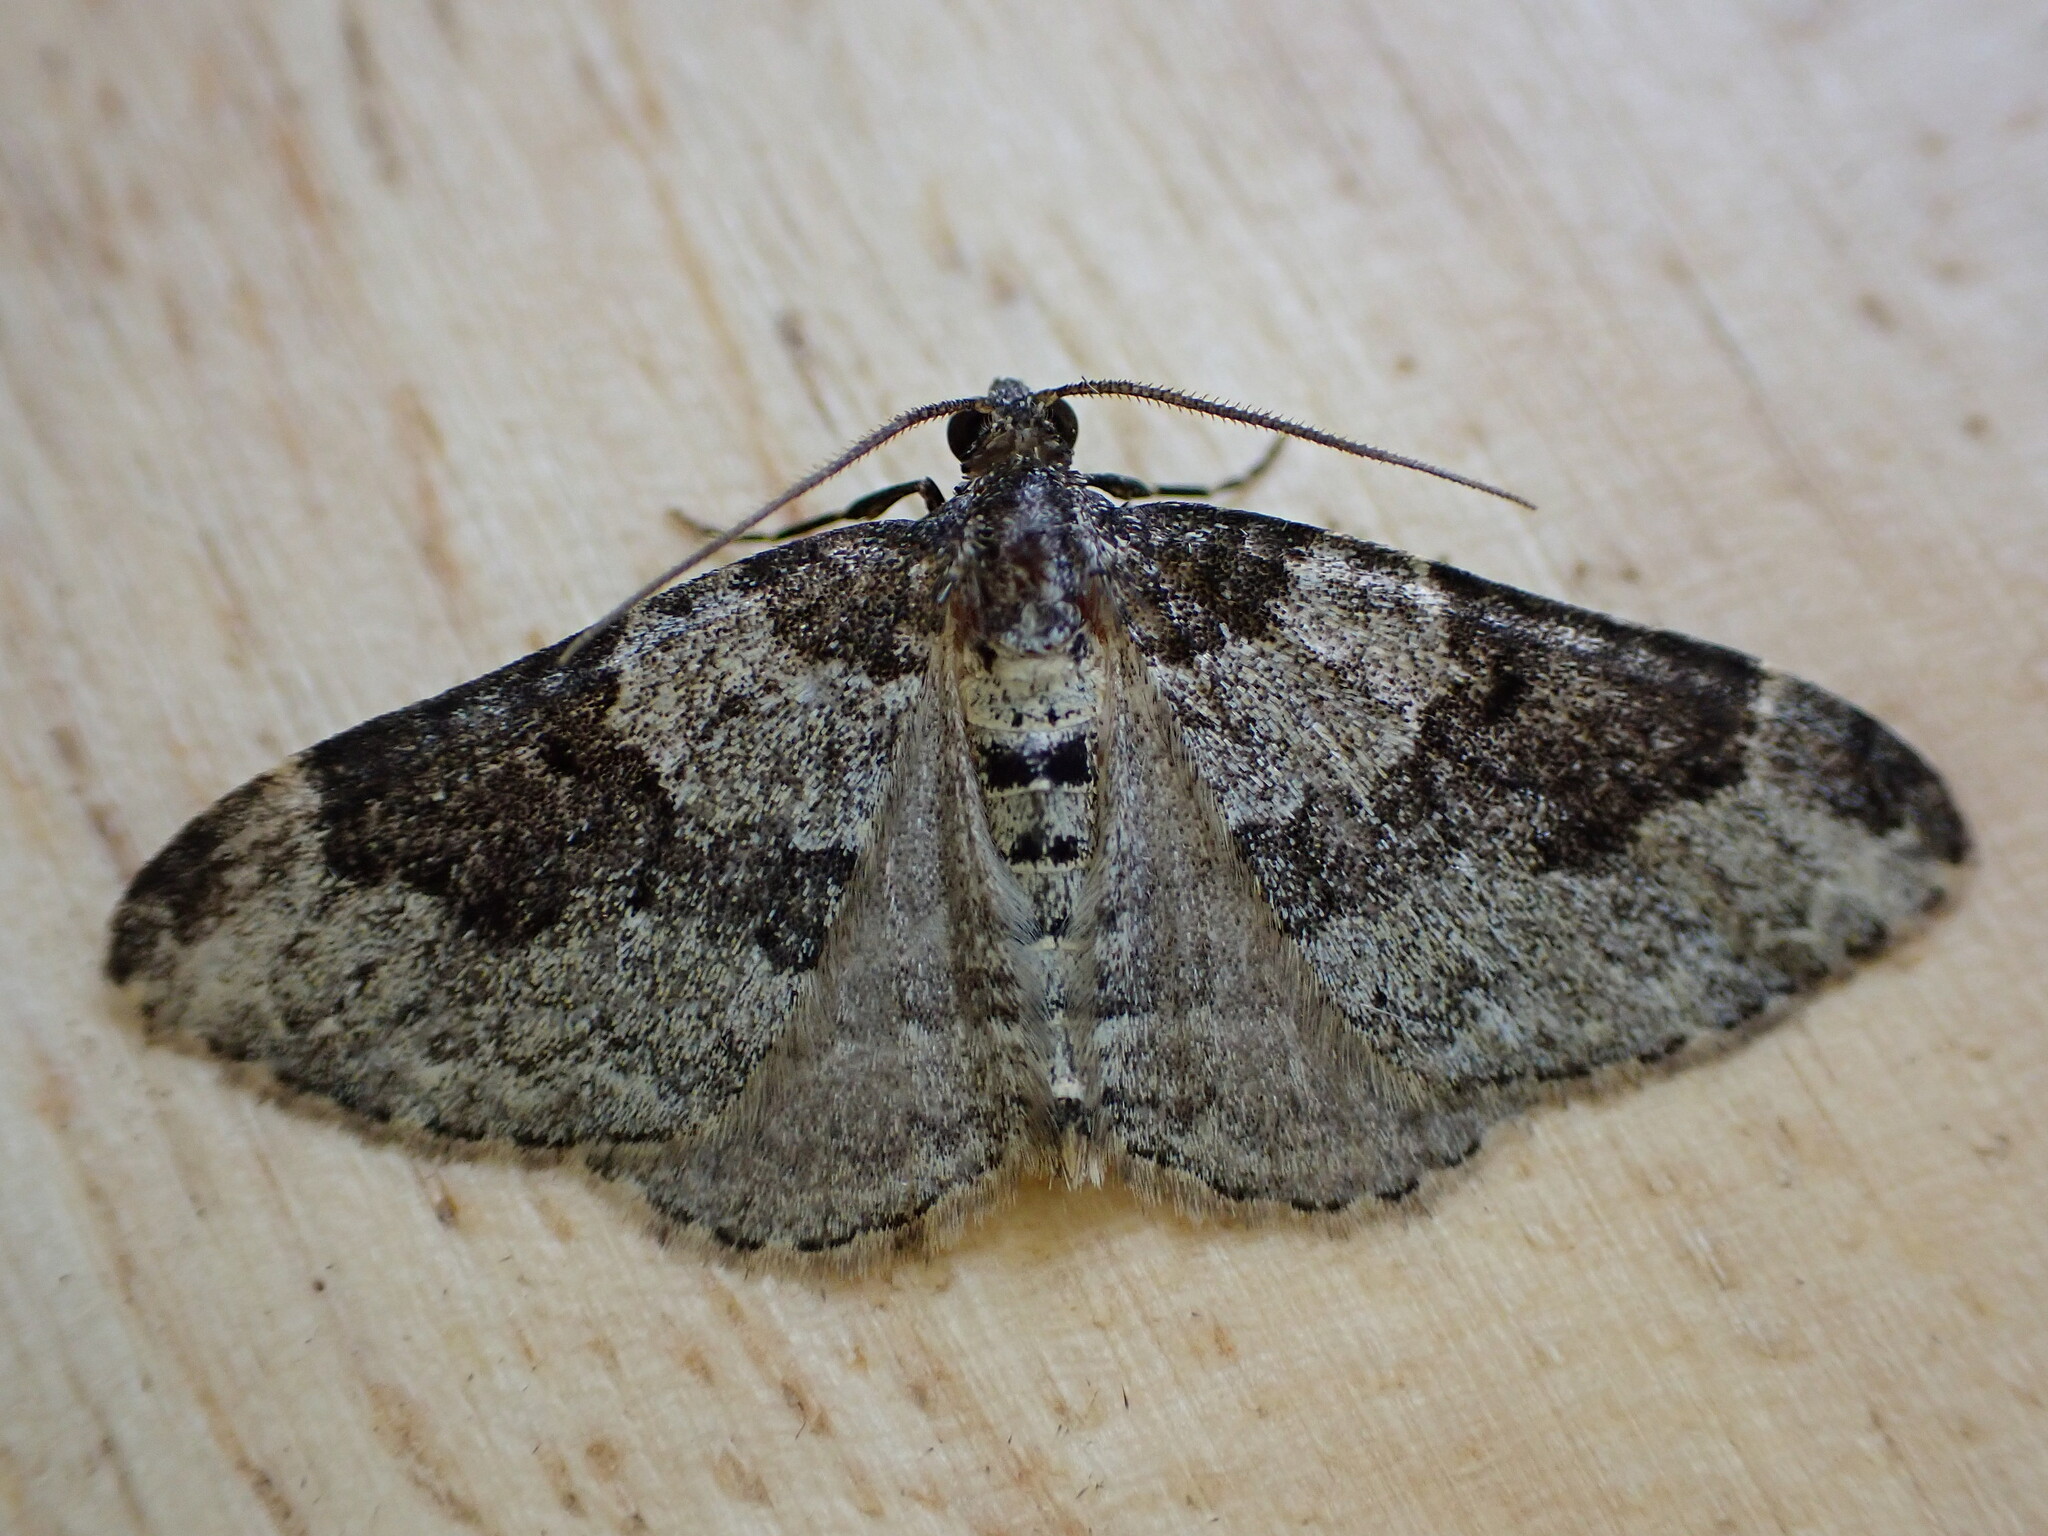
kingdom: Animalia
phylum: Arthropoda
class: Insecta
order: Lepidoptera
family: Geometridae
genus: Xanthorhoe
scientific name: Xanthorhoe fluctuata
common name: Garden carpet
